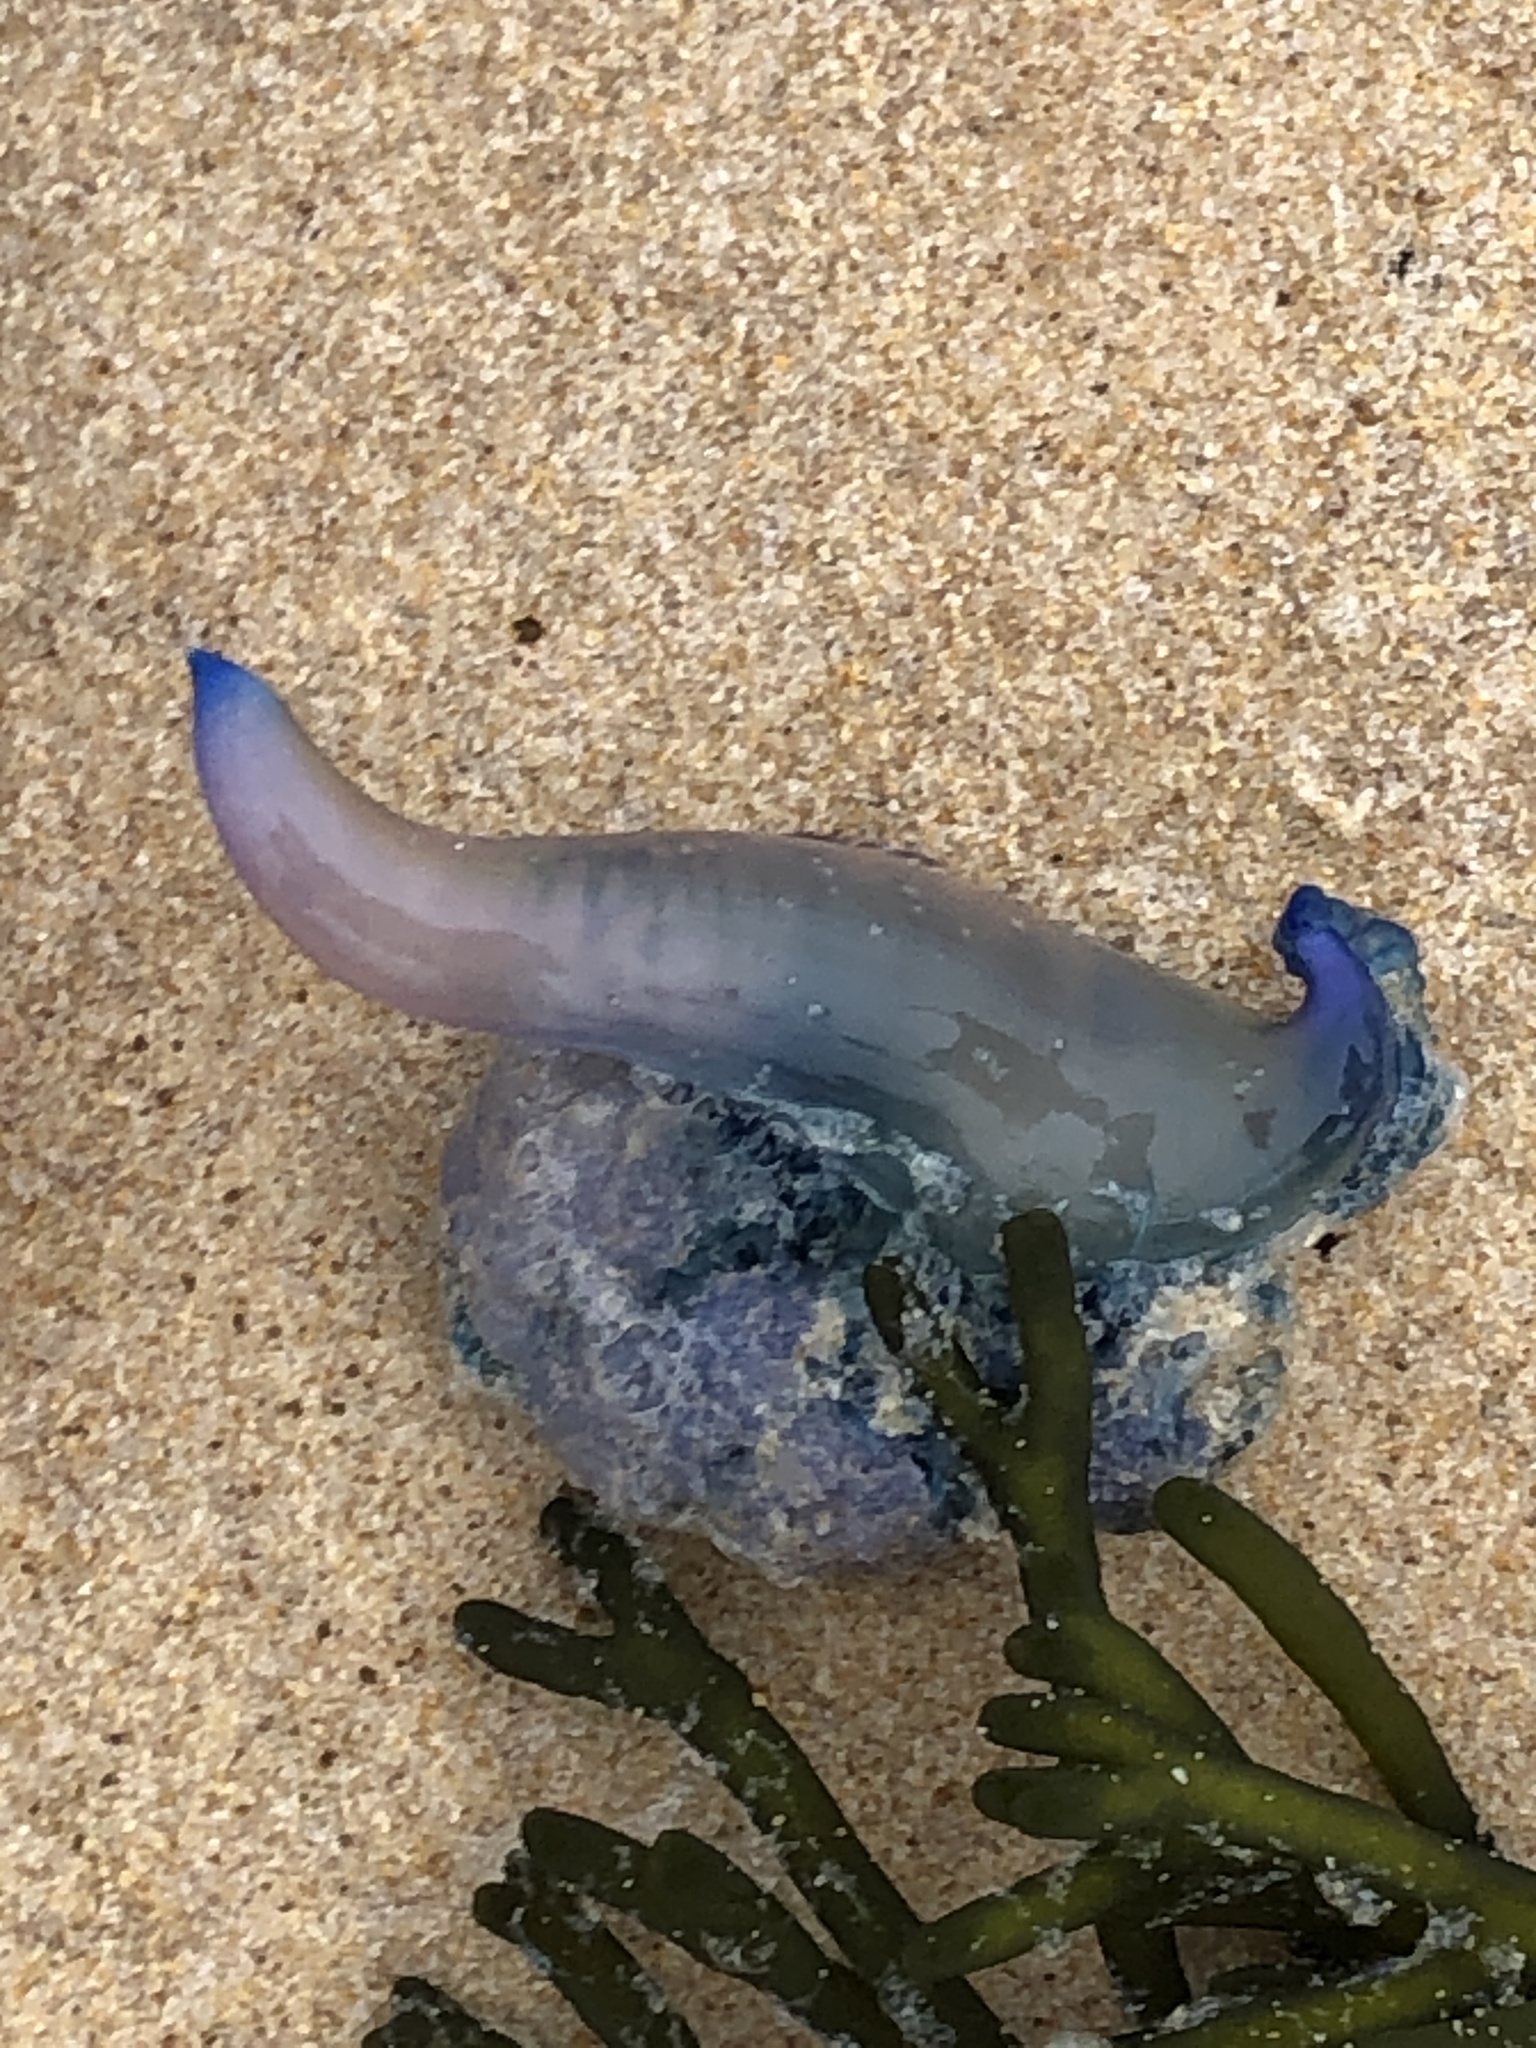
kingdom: Animalia
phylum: Cnidaria
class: Hydrozoa
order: Siphonophorae
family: Physaliidae
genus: Physalia
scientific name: Physalia physalis
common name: Portuguese man-of-war
